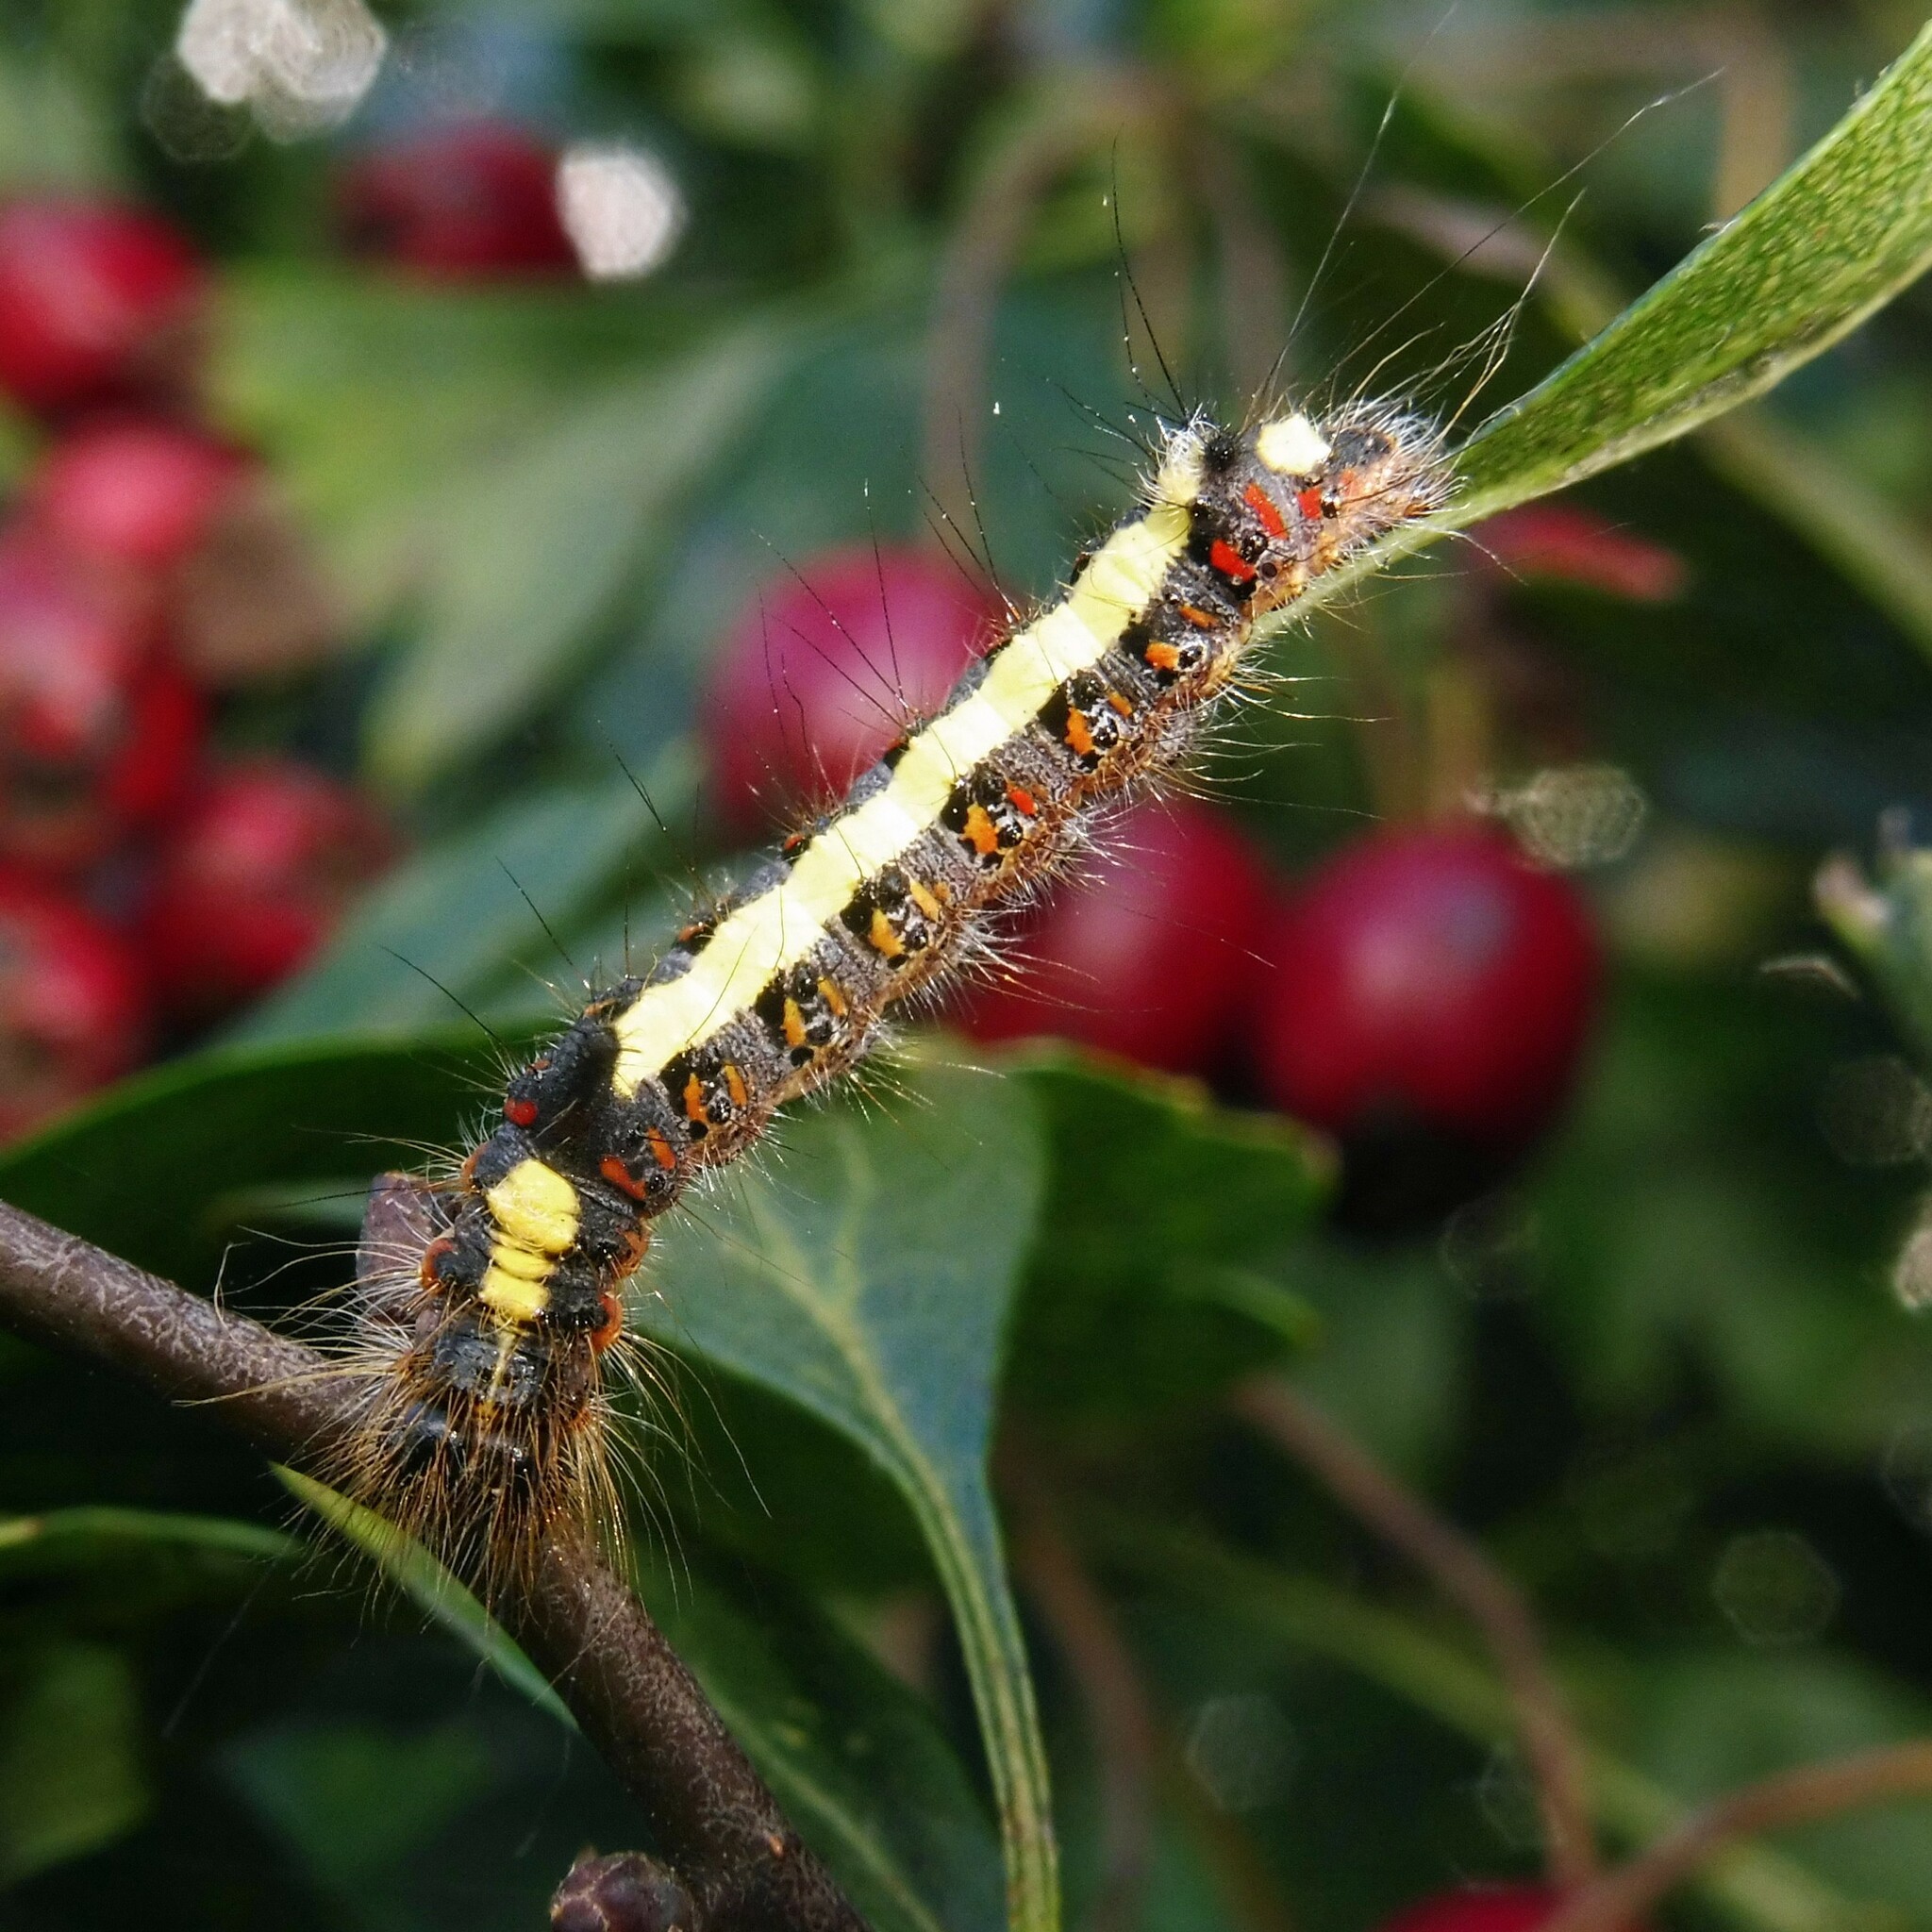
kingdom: Animalia
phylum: Arthropoda
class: Insecta
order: Lepidoptera
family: Noctuidae
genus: Acronicta
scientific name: Acronicta psi
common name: Grey dagger
